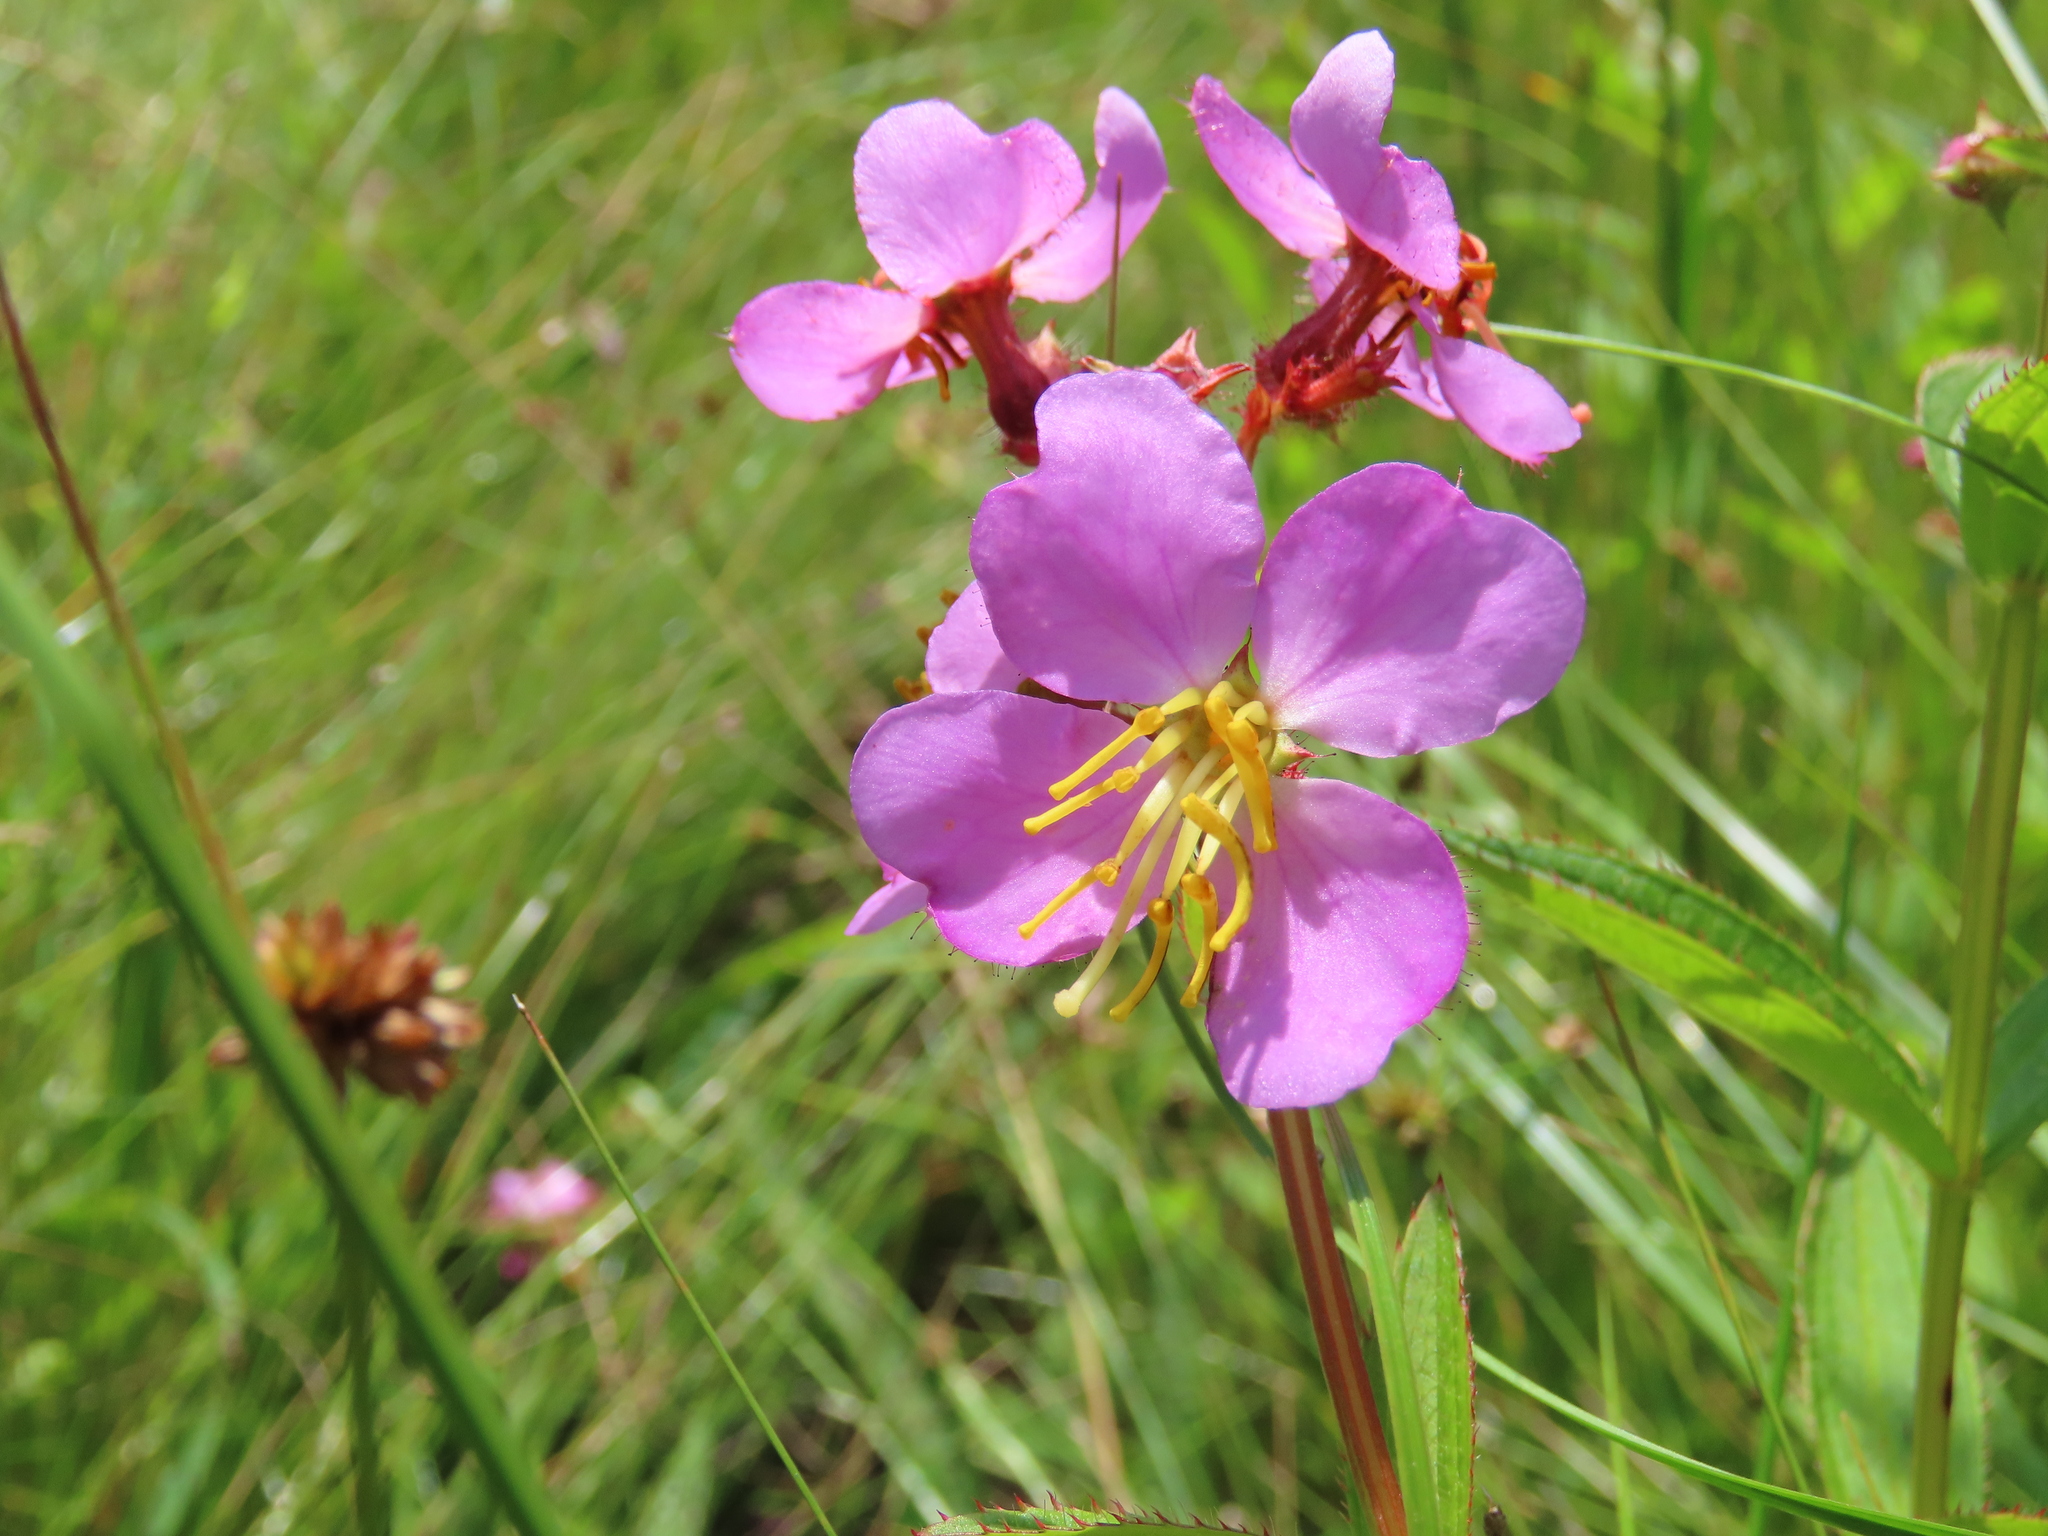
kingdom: Plantae
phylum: Tracheophyta
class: Magnoliopsida
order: Myrtales
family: Melastomataceae
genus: Rhexia
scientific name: Rhexia virginica
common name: Common meadow beauty
